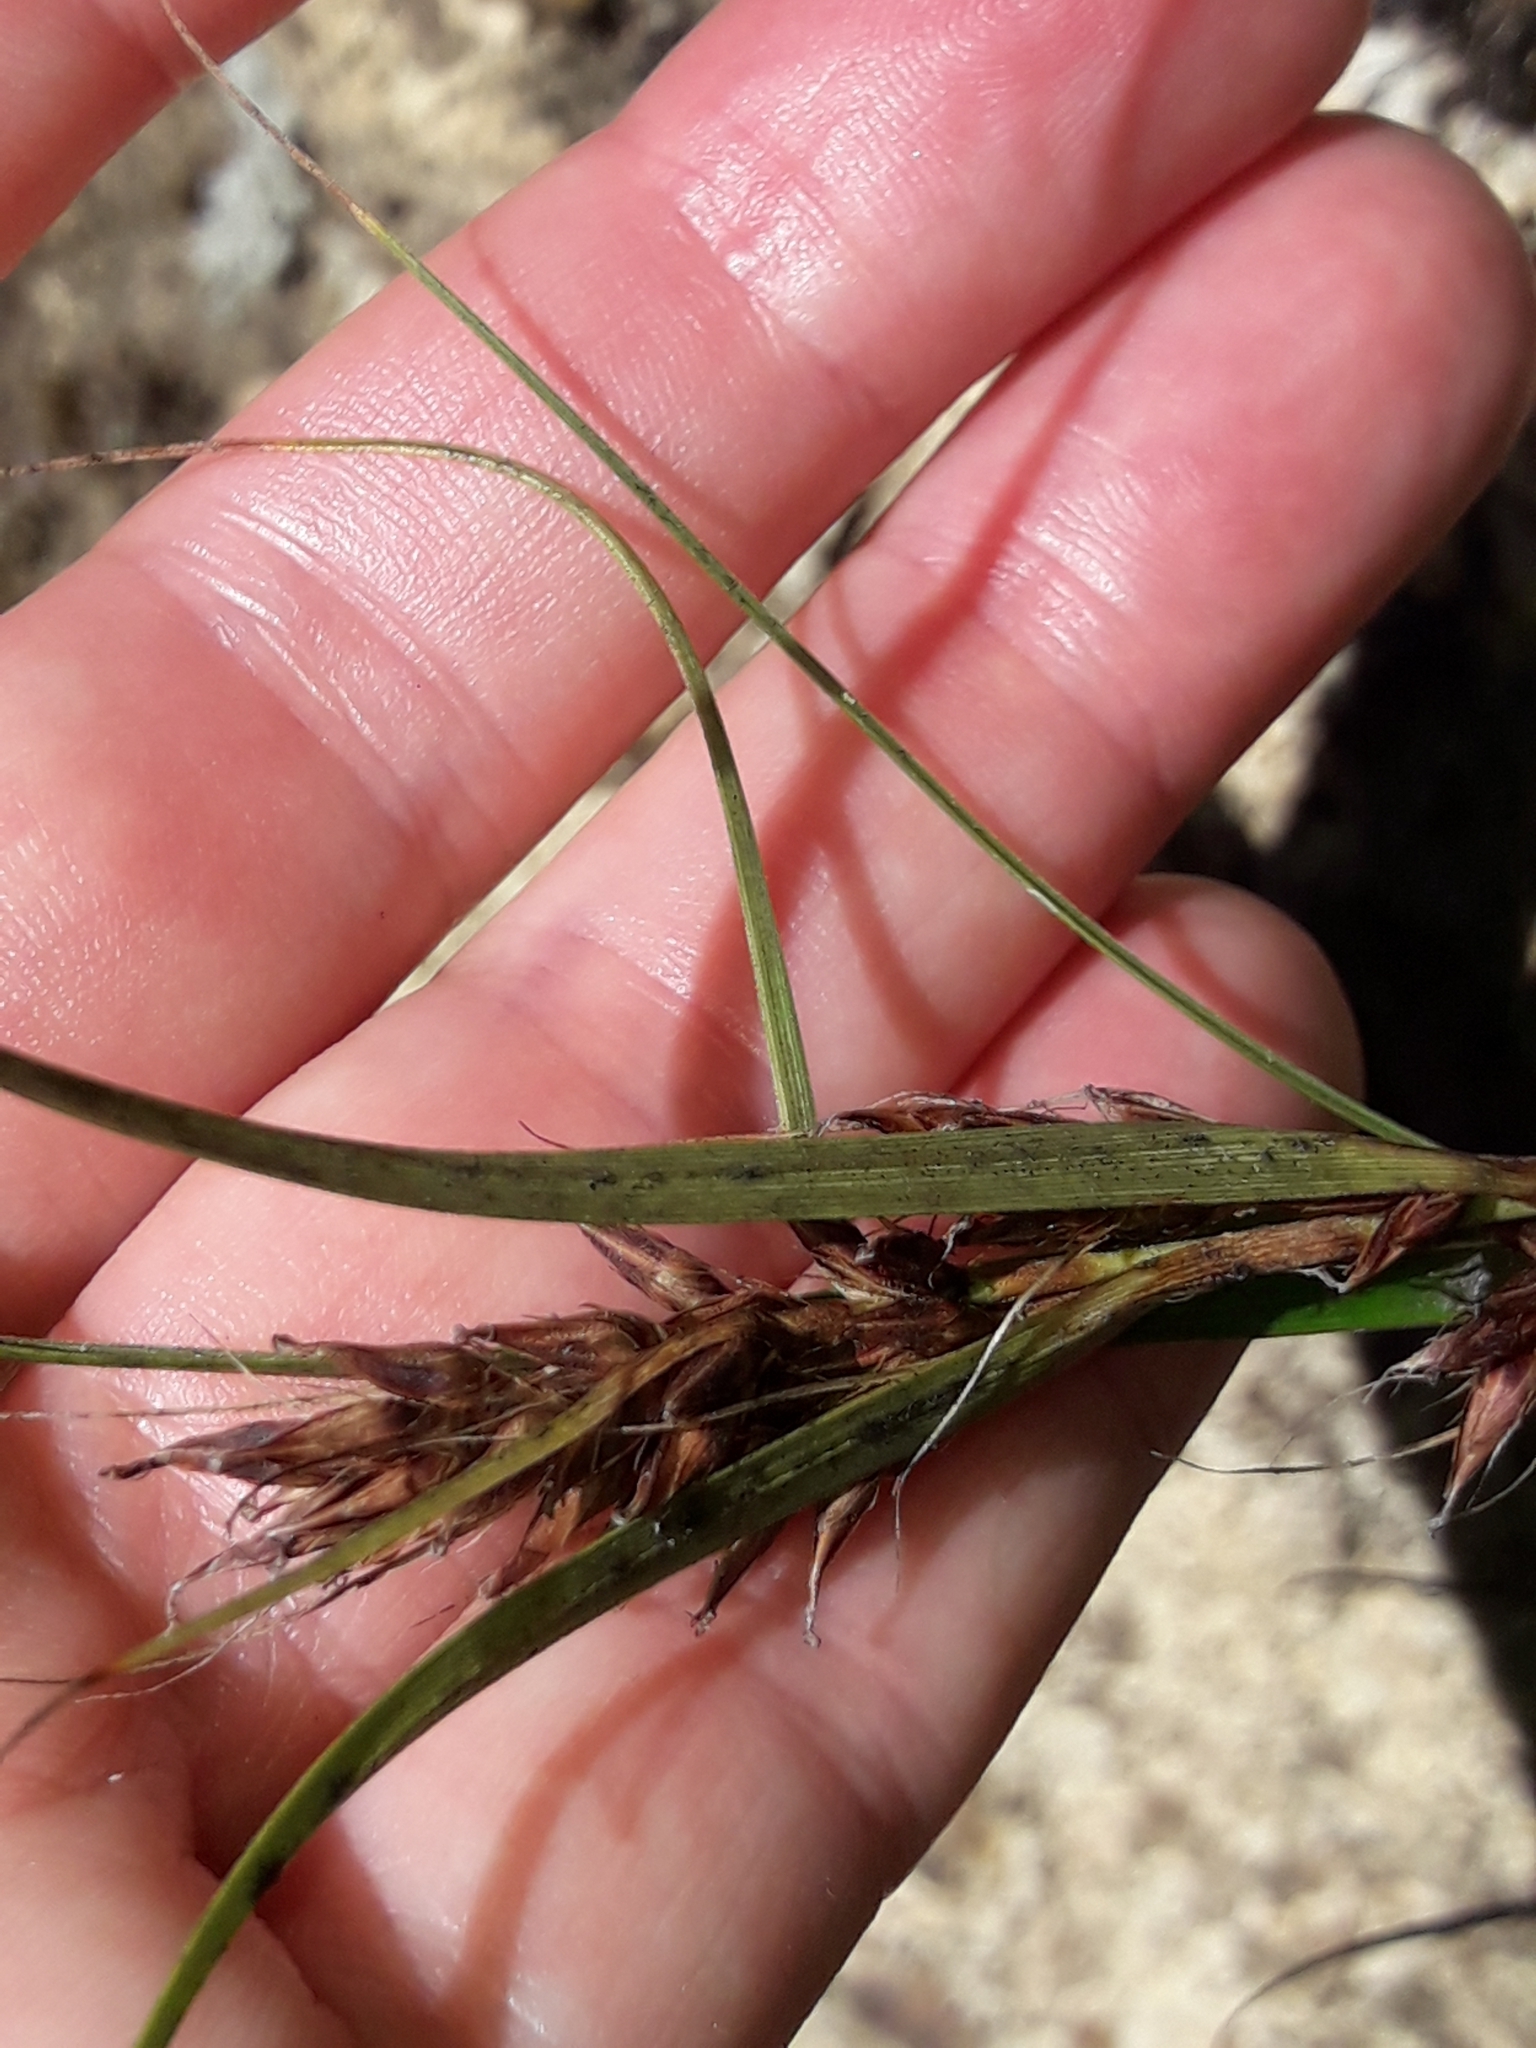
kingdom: Plantae
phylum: Tracheophyta
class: Liliopsida
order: Poales
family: Cyperaceae
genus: Morelotia
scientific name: Morelotia affinis
